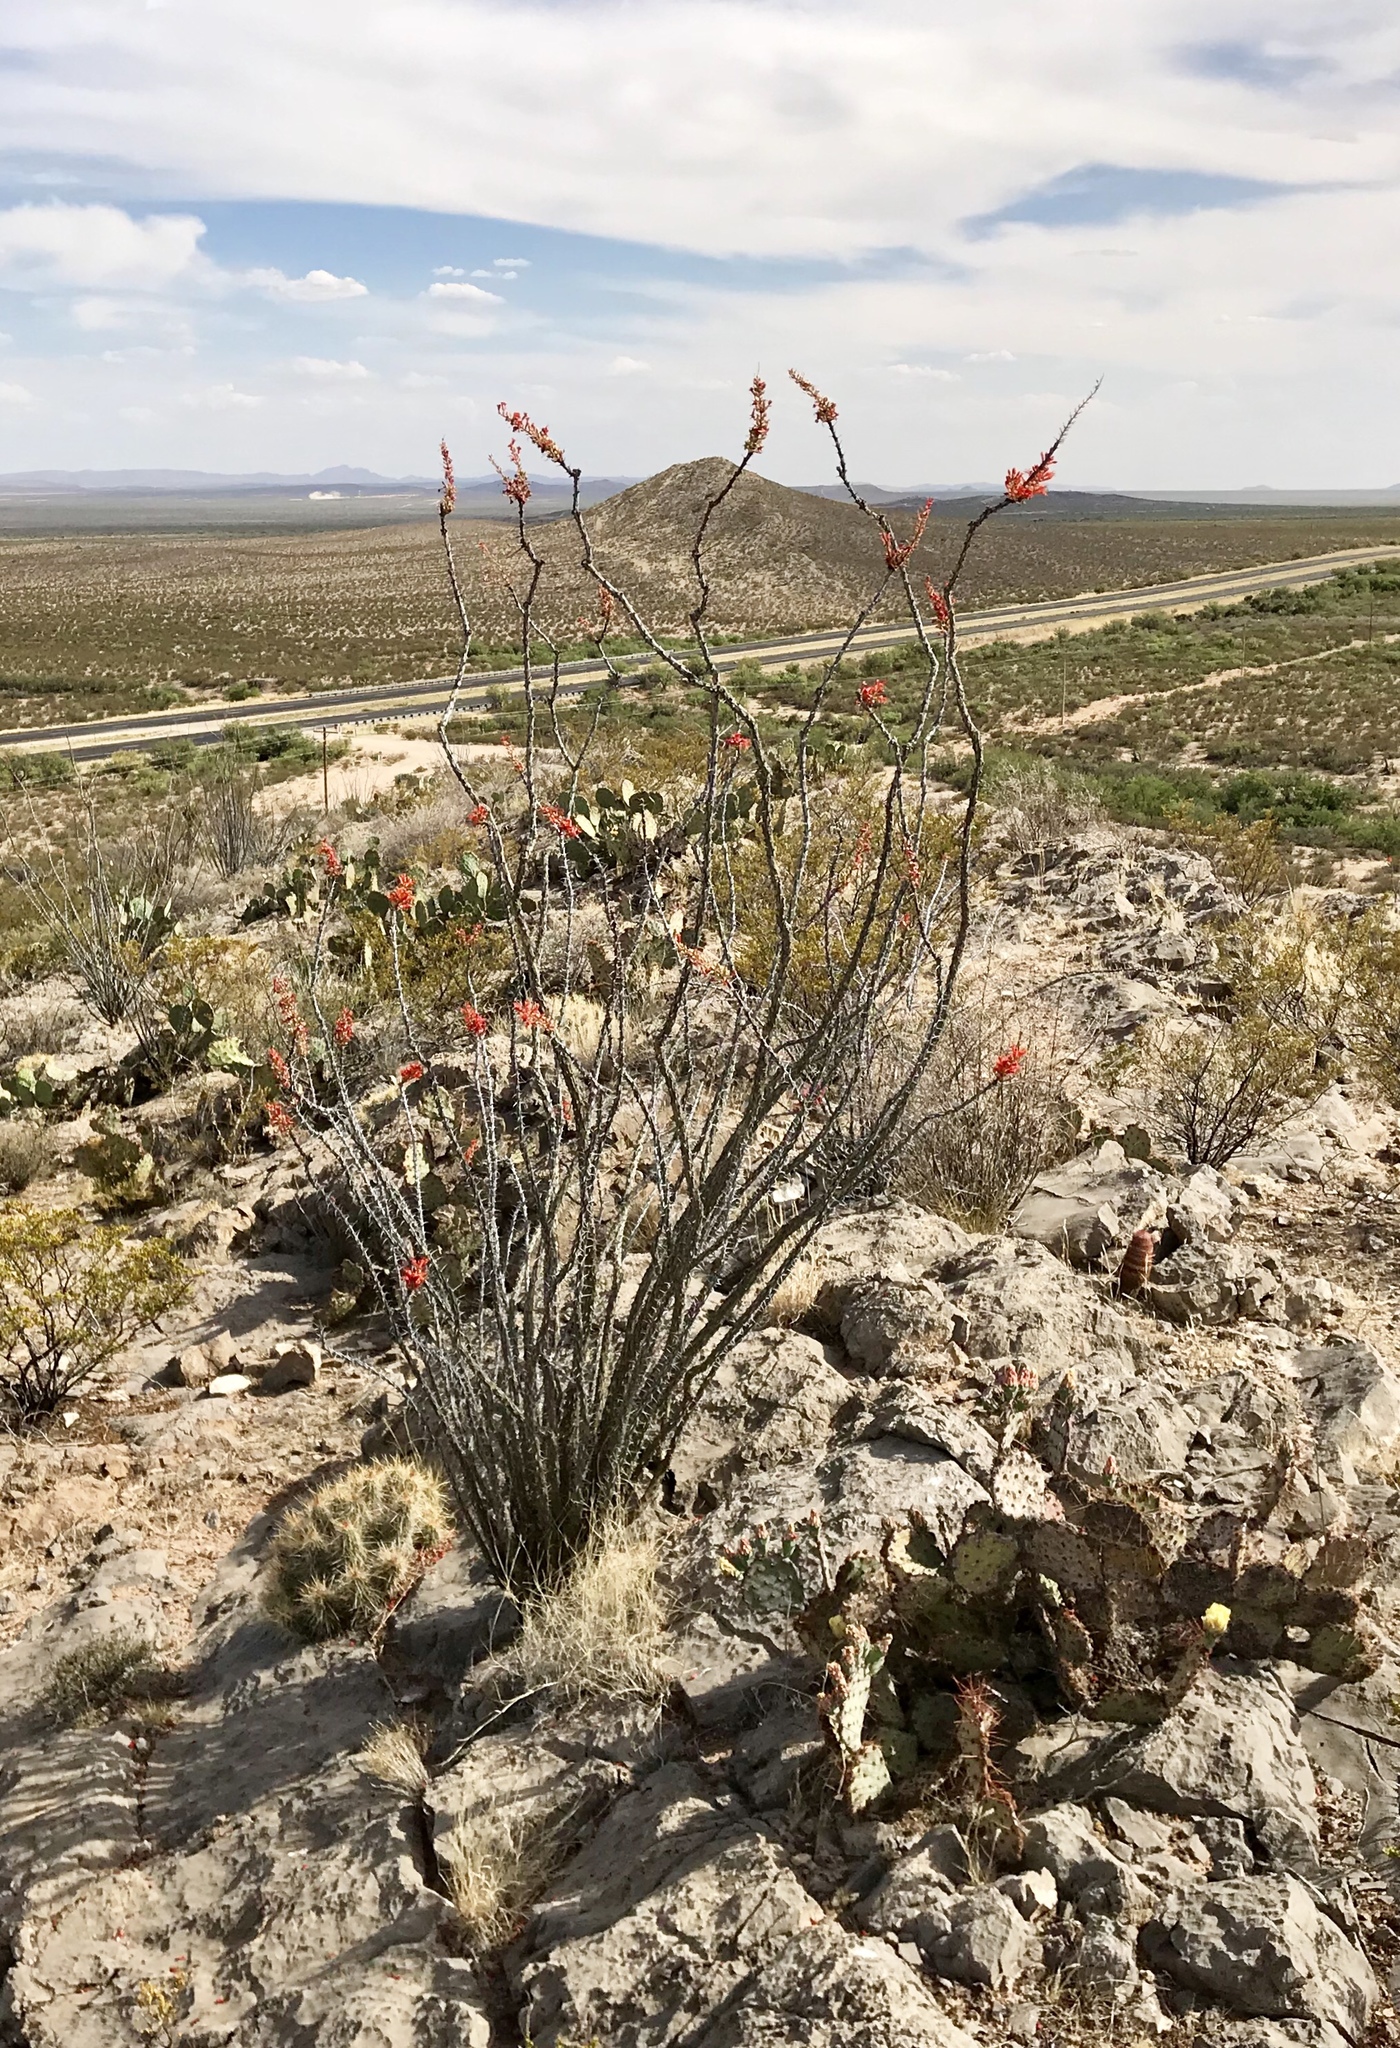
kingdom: Plantae
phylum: Tracheophyta
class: Magnoliopsida
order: Ericales
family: Fouquieriaceae
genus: Fouquieria
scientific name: Fouquieria splendens
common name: Vine-cactus
